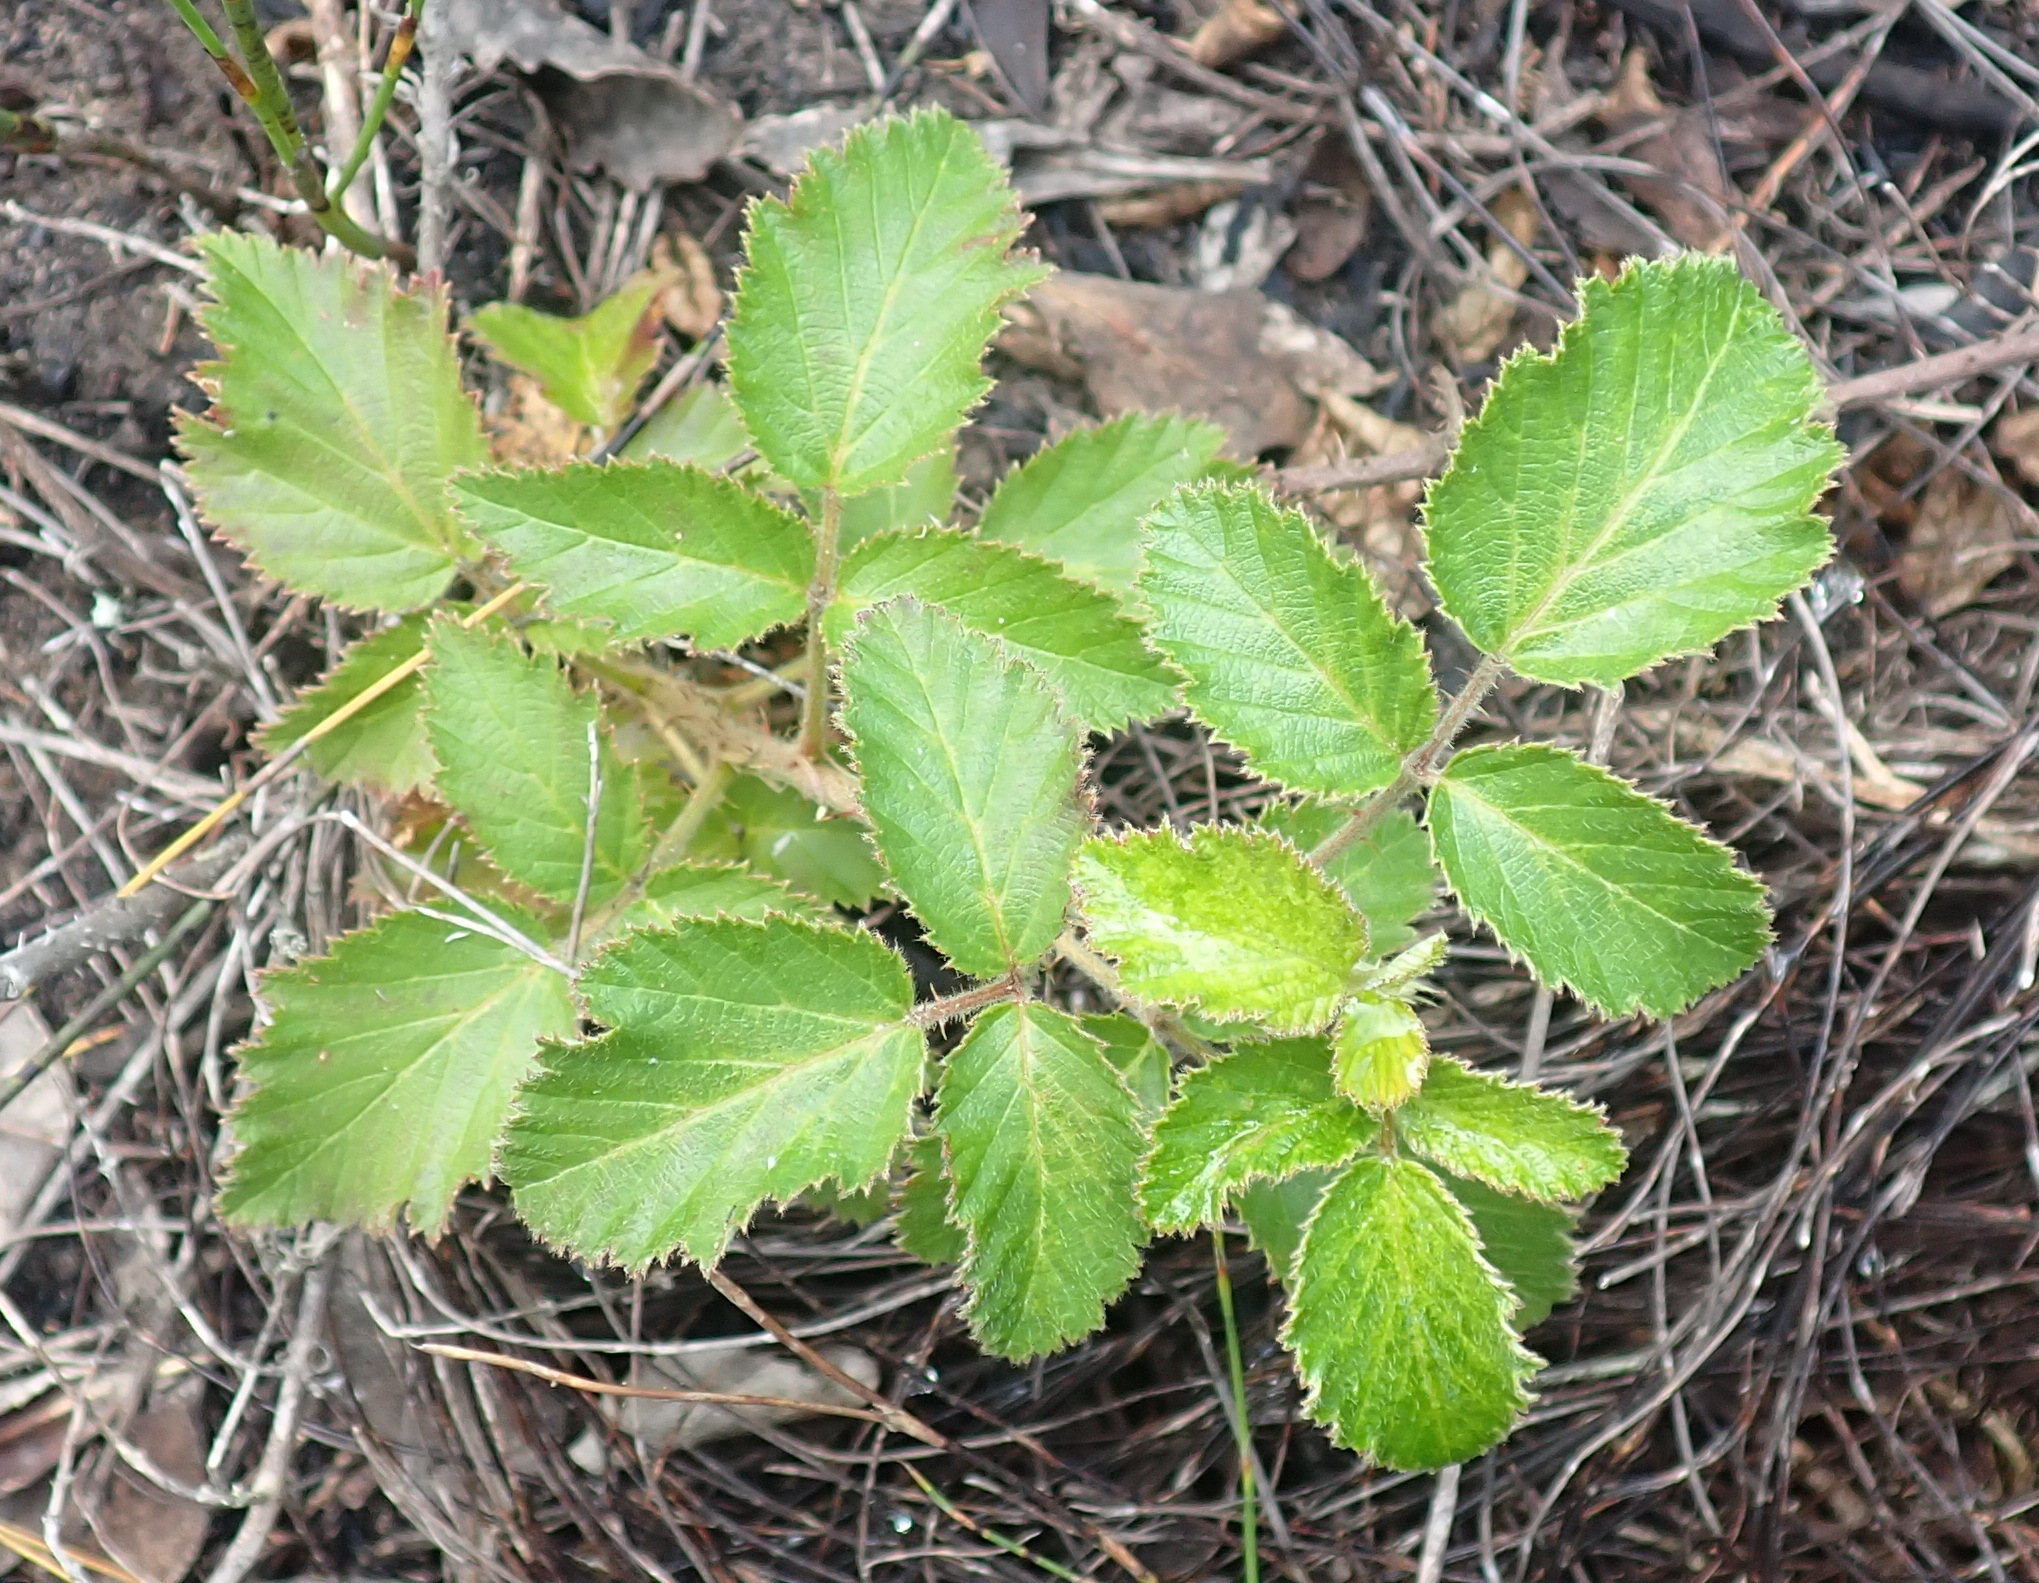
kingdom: Plantae
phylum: Tracheophyta
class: Magnoliopsida
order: Rosales
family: Rosaceae
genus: Rubus
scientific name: Rubus rigidus
